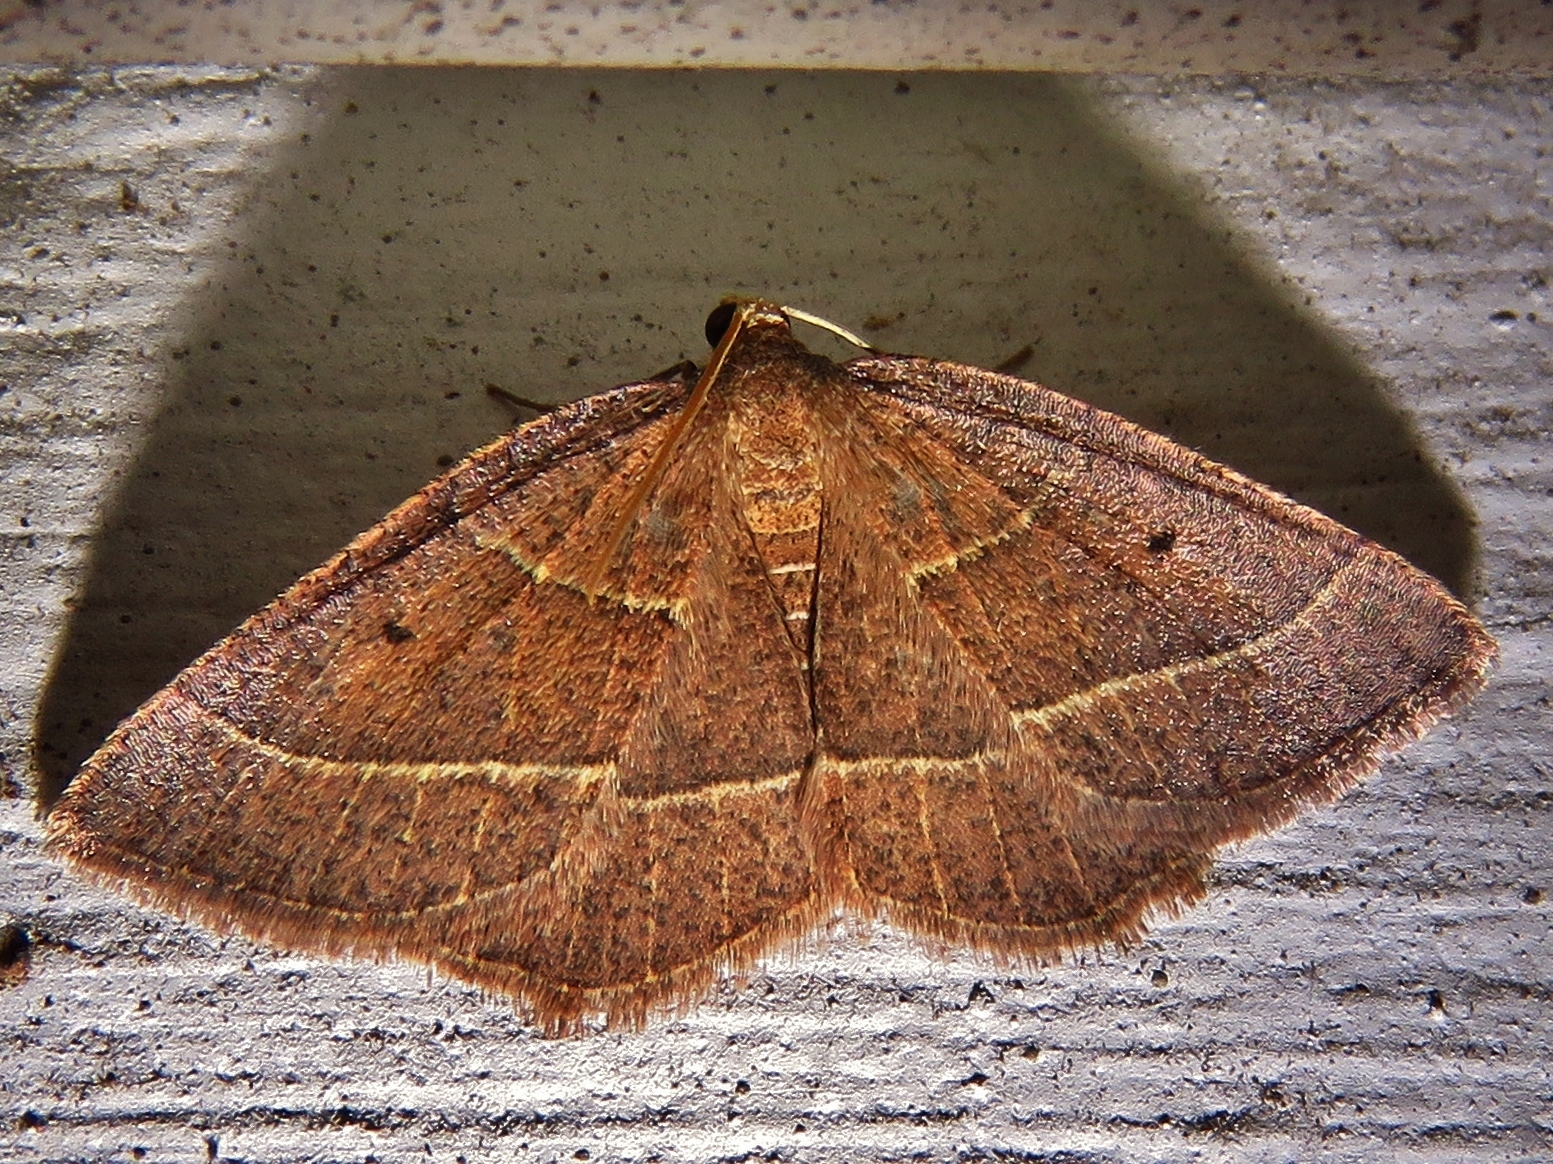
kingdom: Animalia
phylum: Arthropoda
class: Insecta
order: Lepidoptera
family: Geometridae
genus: Episemasia
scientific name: Episemasia cervinaria
